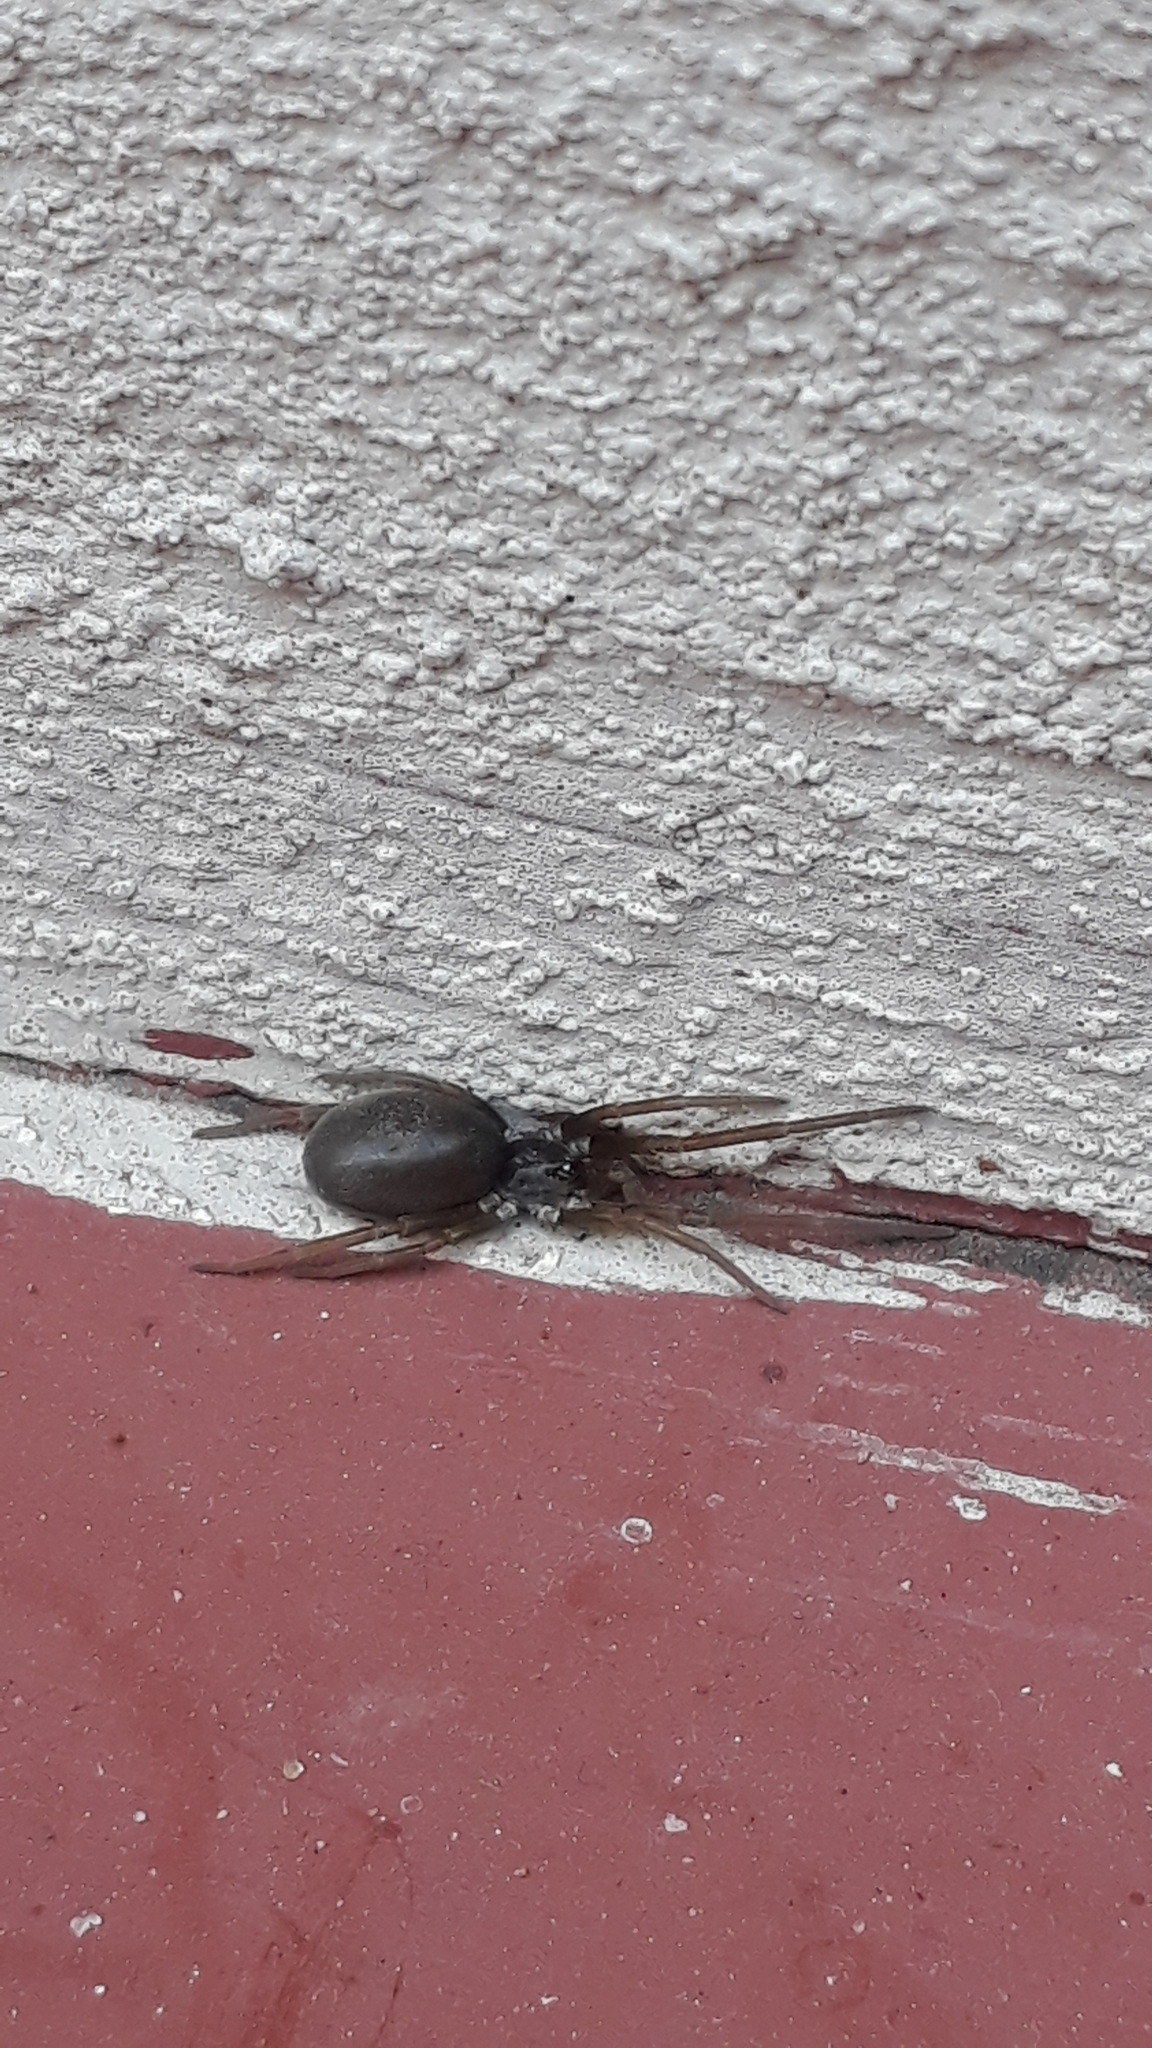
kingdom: Animalia
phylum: Arthropoda
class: Arachnida
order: Araneae
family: Filistatidae
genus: Kukulcania
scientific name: Kukulcania hibernalis
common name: Crevice weaver
